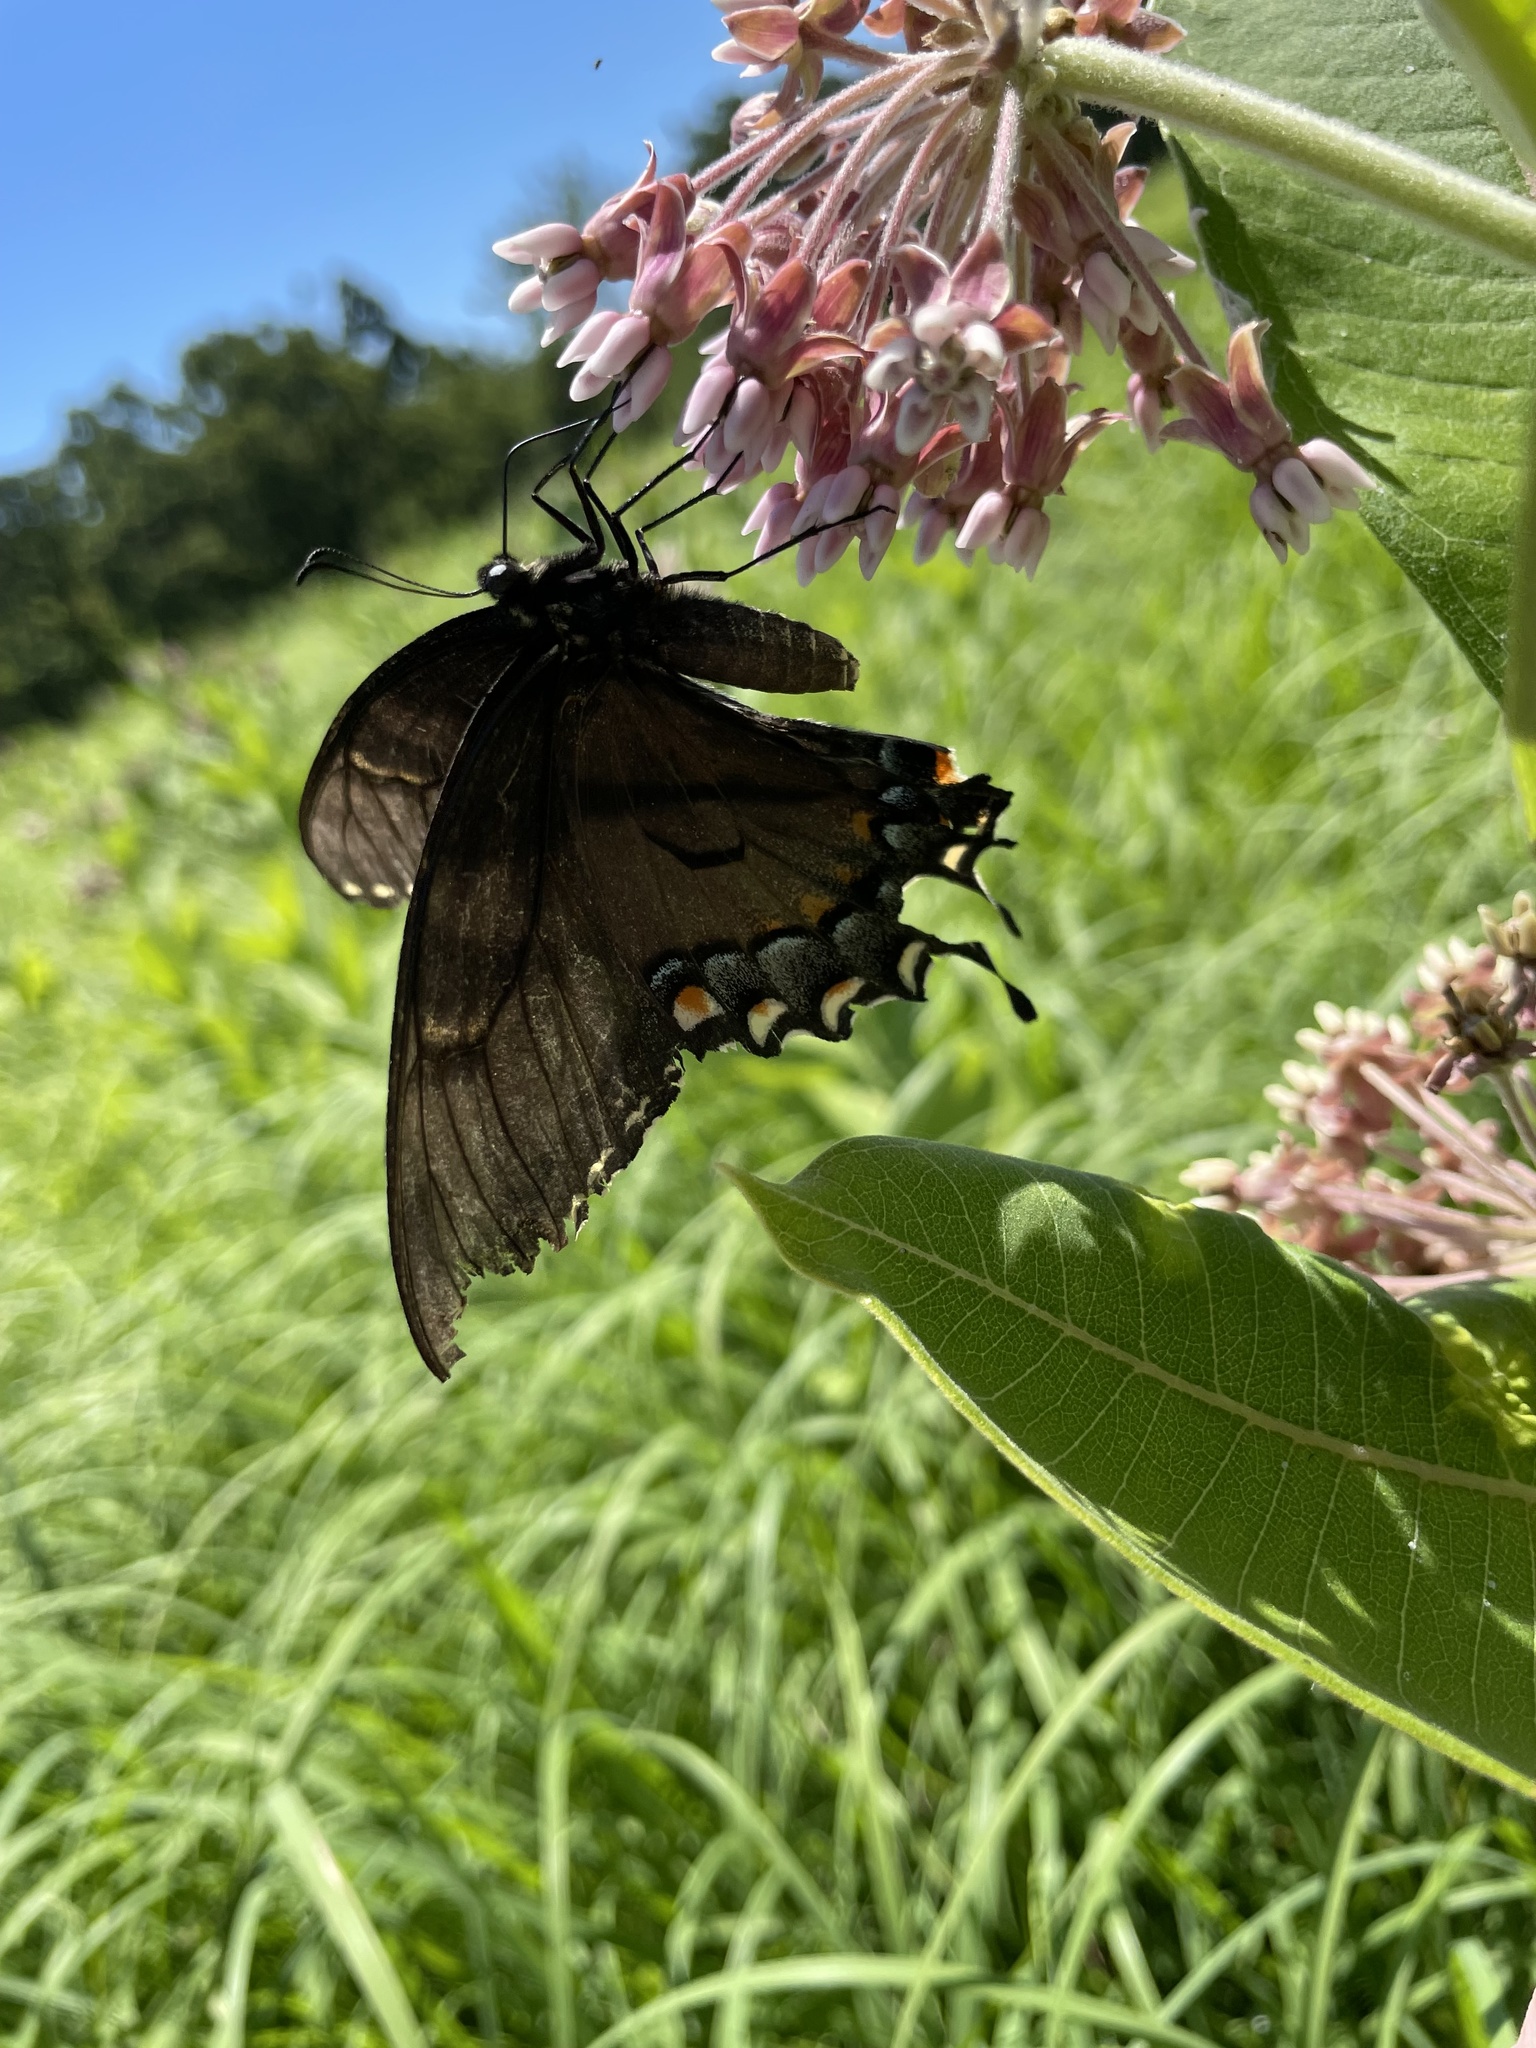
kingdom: Animalia
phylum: Arthropoda
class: Insecta
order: Lepidoptera
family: Papilionidae
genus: Papilio
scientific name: Papilio glaucus
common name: Tiger swallowtail
